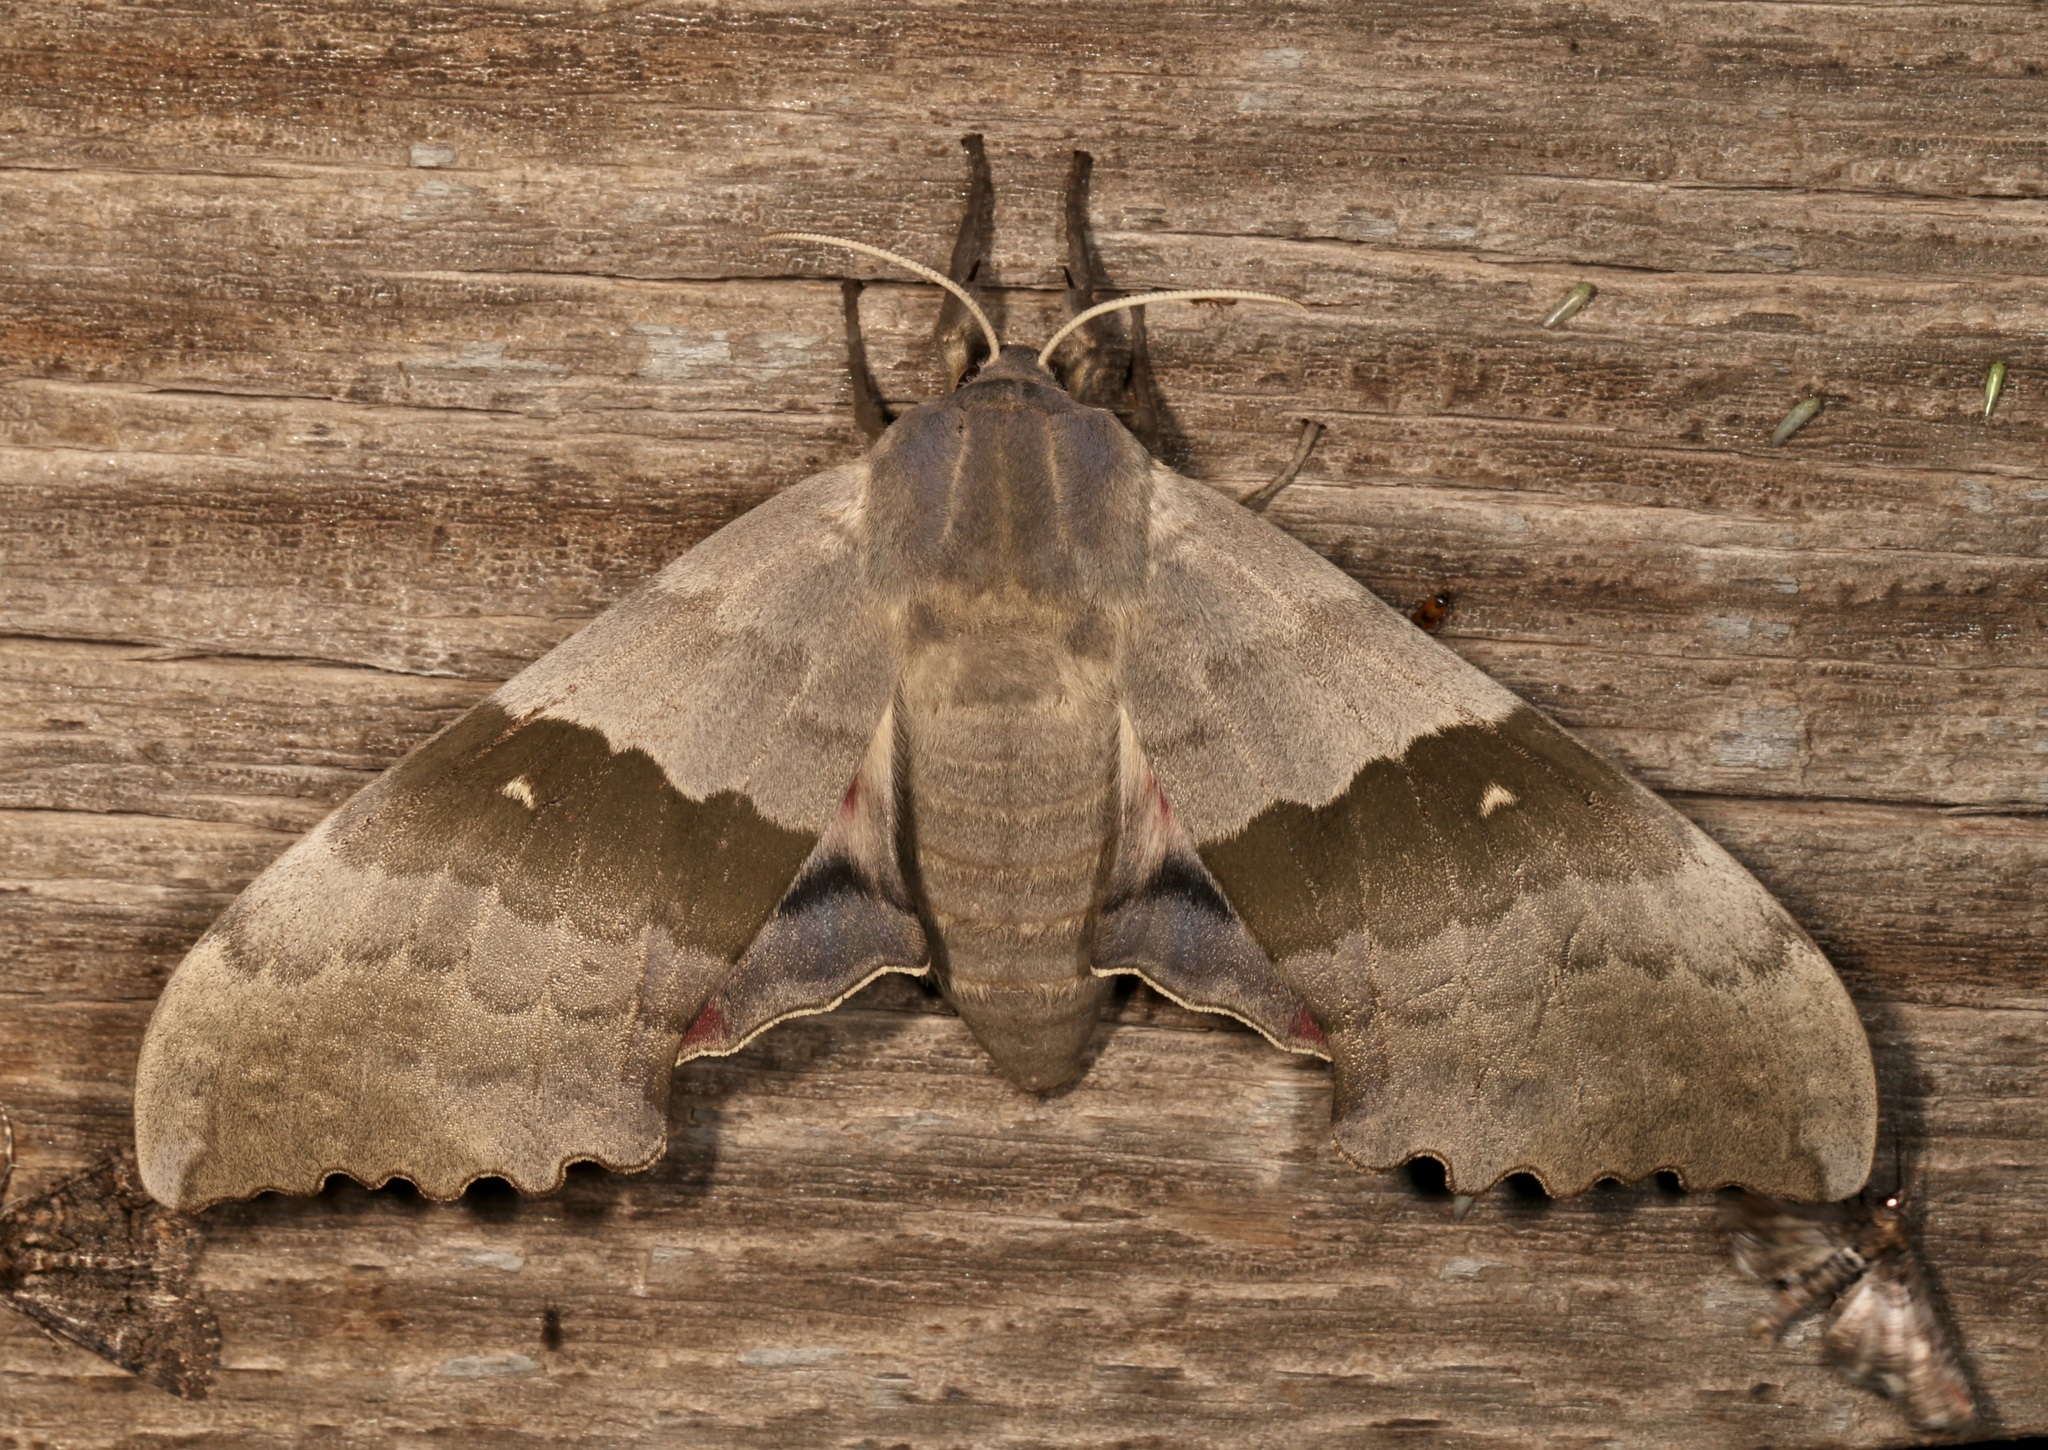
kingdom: Animalia
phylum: Arthropoda
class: Insecta
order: Lepidoptera
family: Sphingidae
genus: Pachysphinx
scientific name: Pachysphinx occidentalis
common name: Western poplar sphinx
